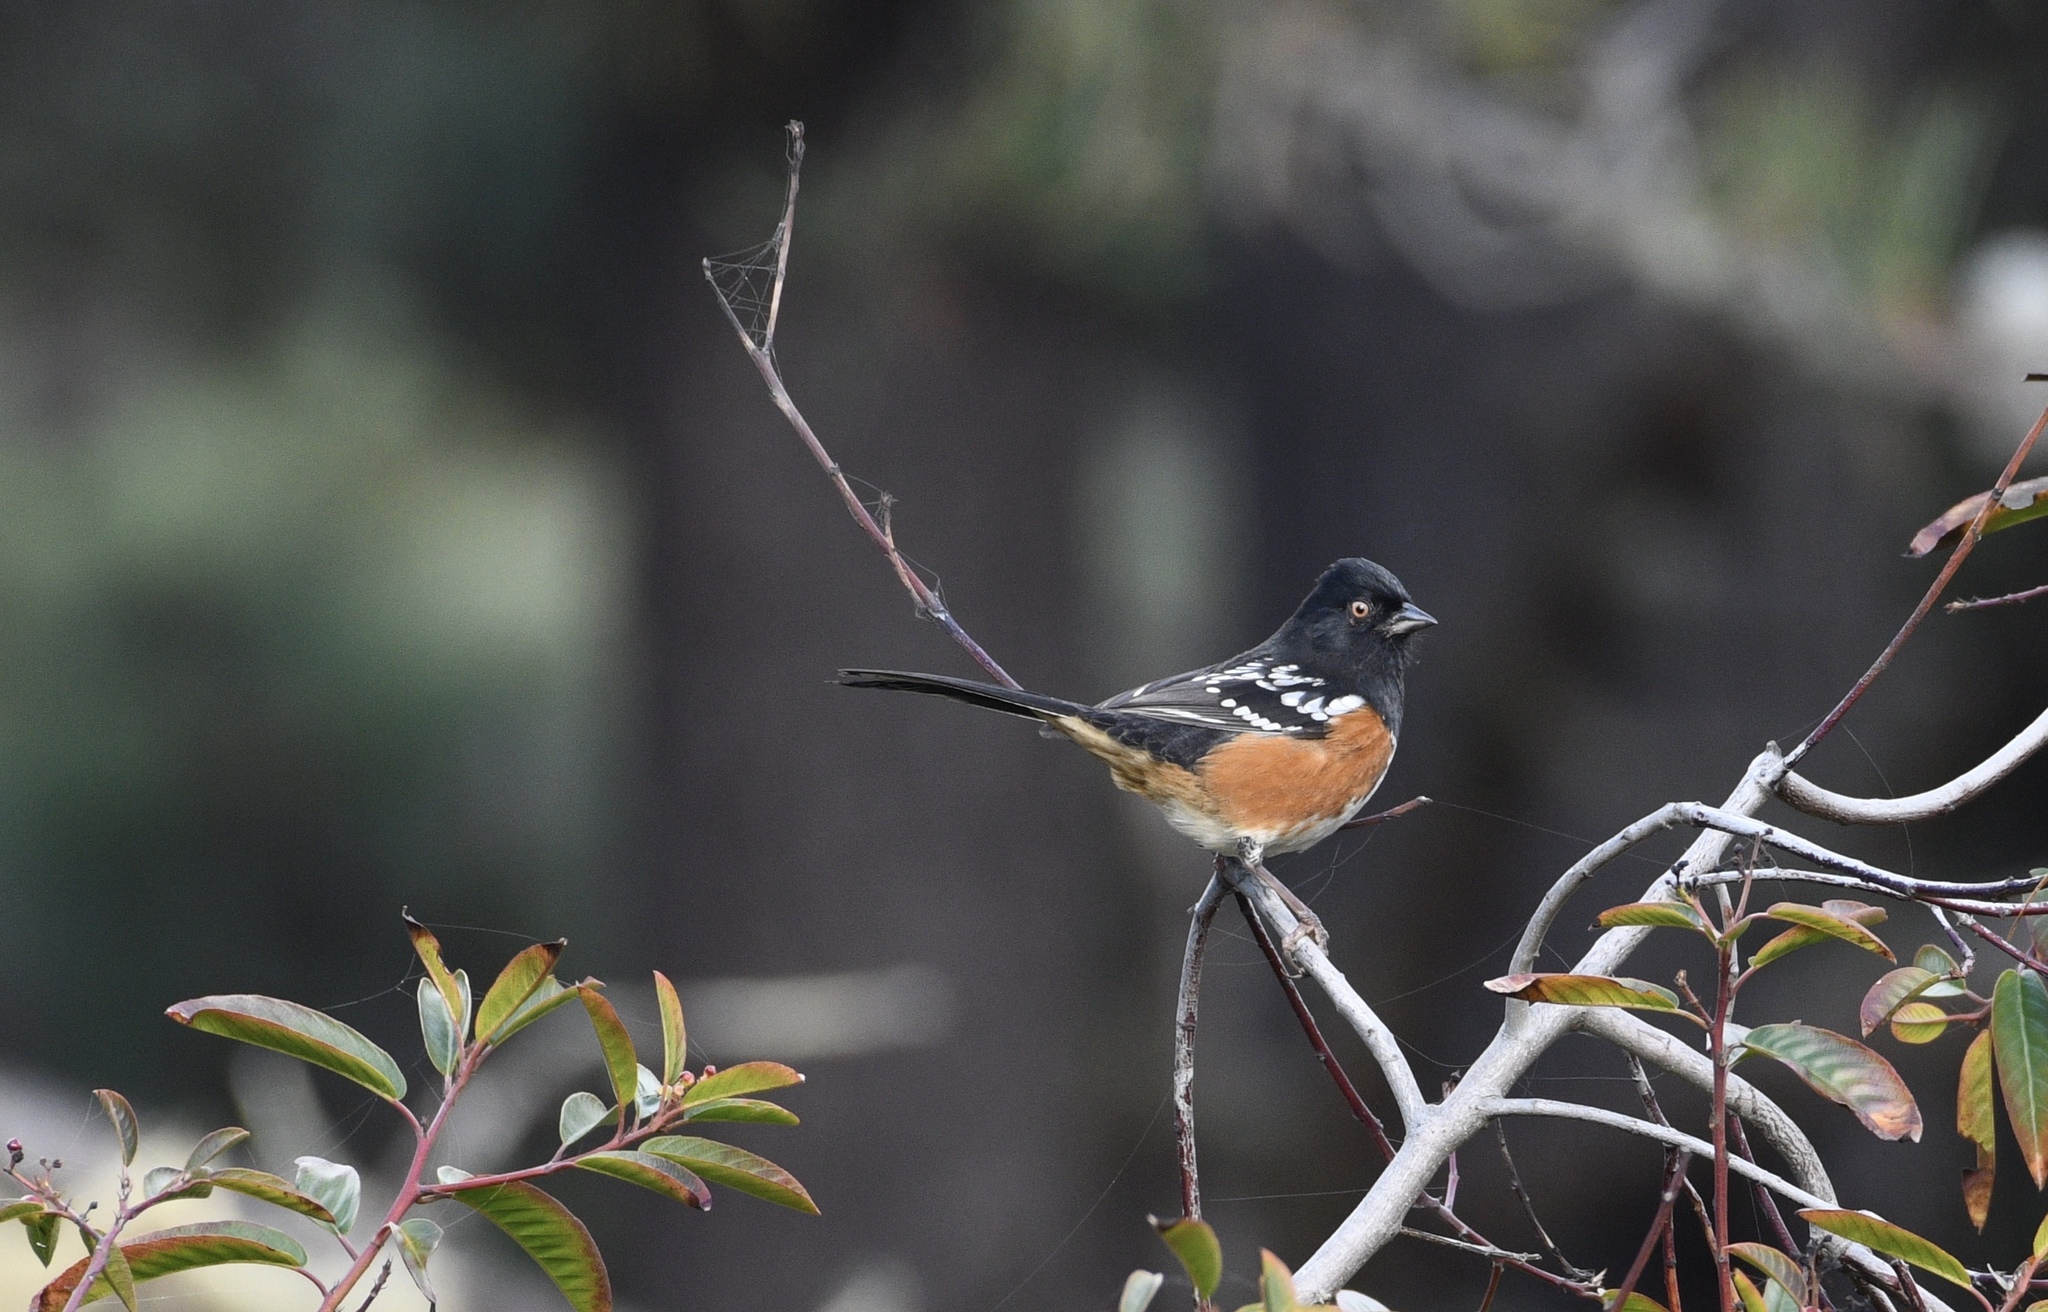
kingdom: Animalia
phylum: Chordata
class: Aves
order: Passeriformes
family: Passerellidae
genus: Pipilo
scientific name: Pipilo maculatus
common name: Spotted towhee
